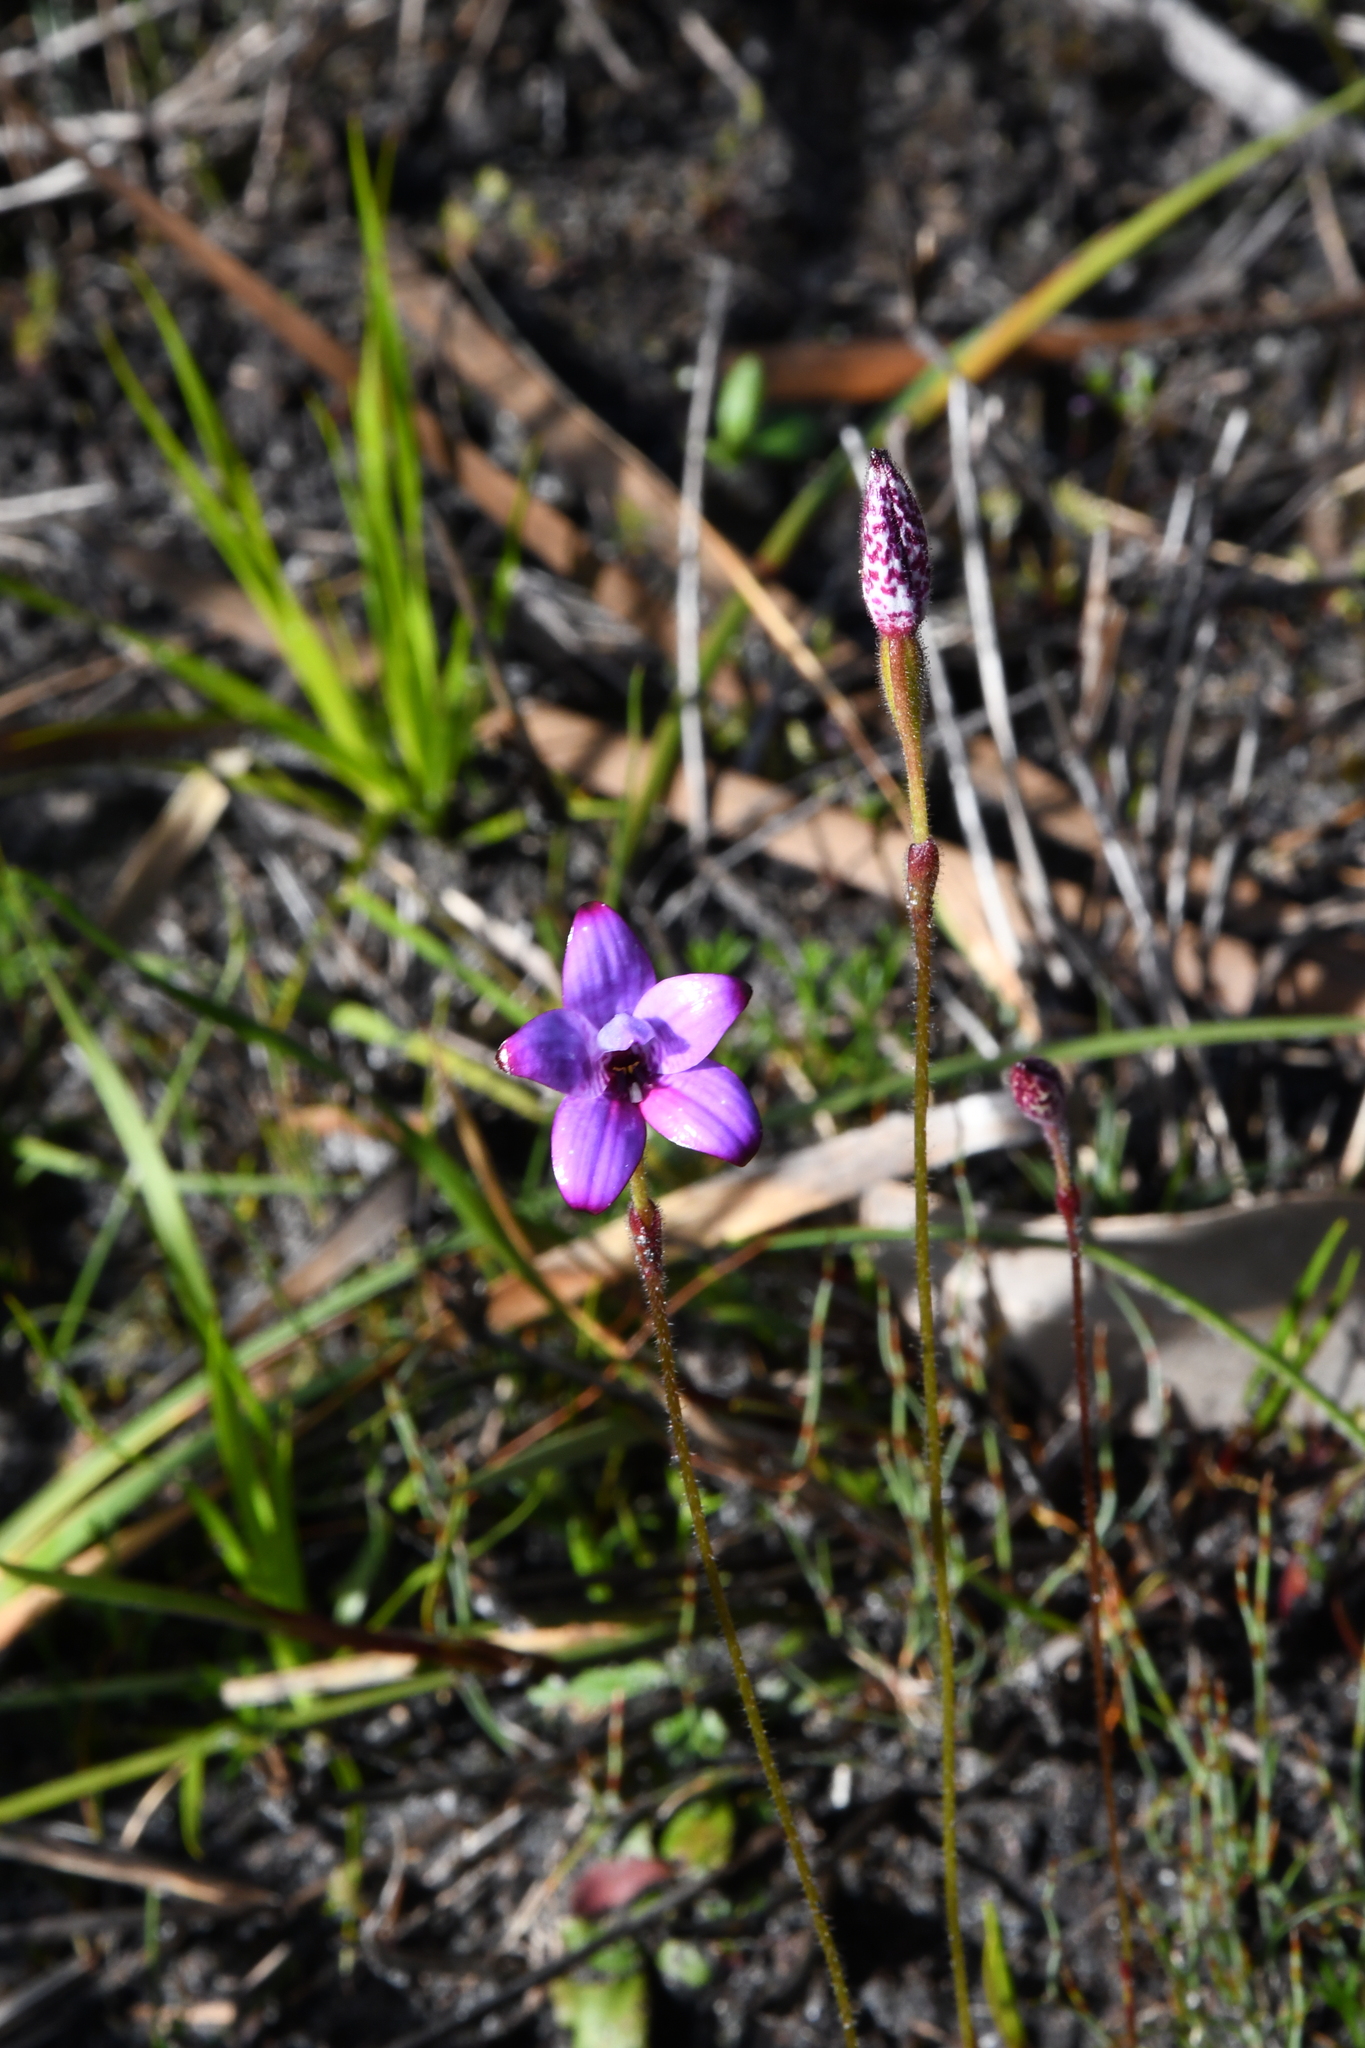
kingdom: Plantae
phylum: Tracheophyta
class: Liliopsida
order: Asparagales
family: Orchidaceae
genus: Caladenia
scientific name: Caladenia brunonis
